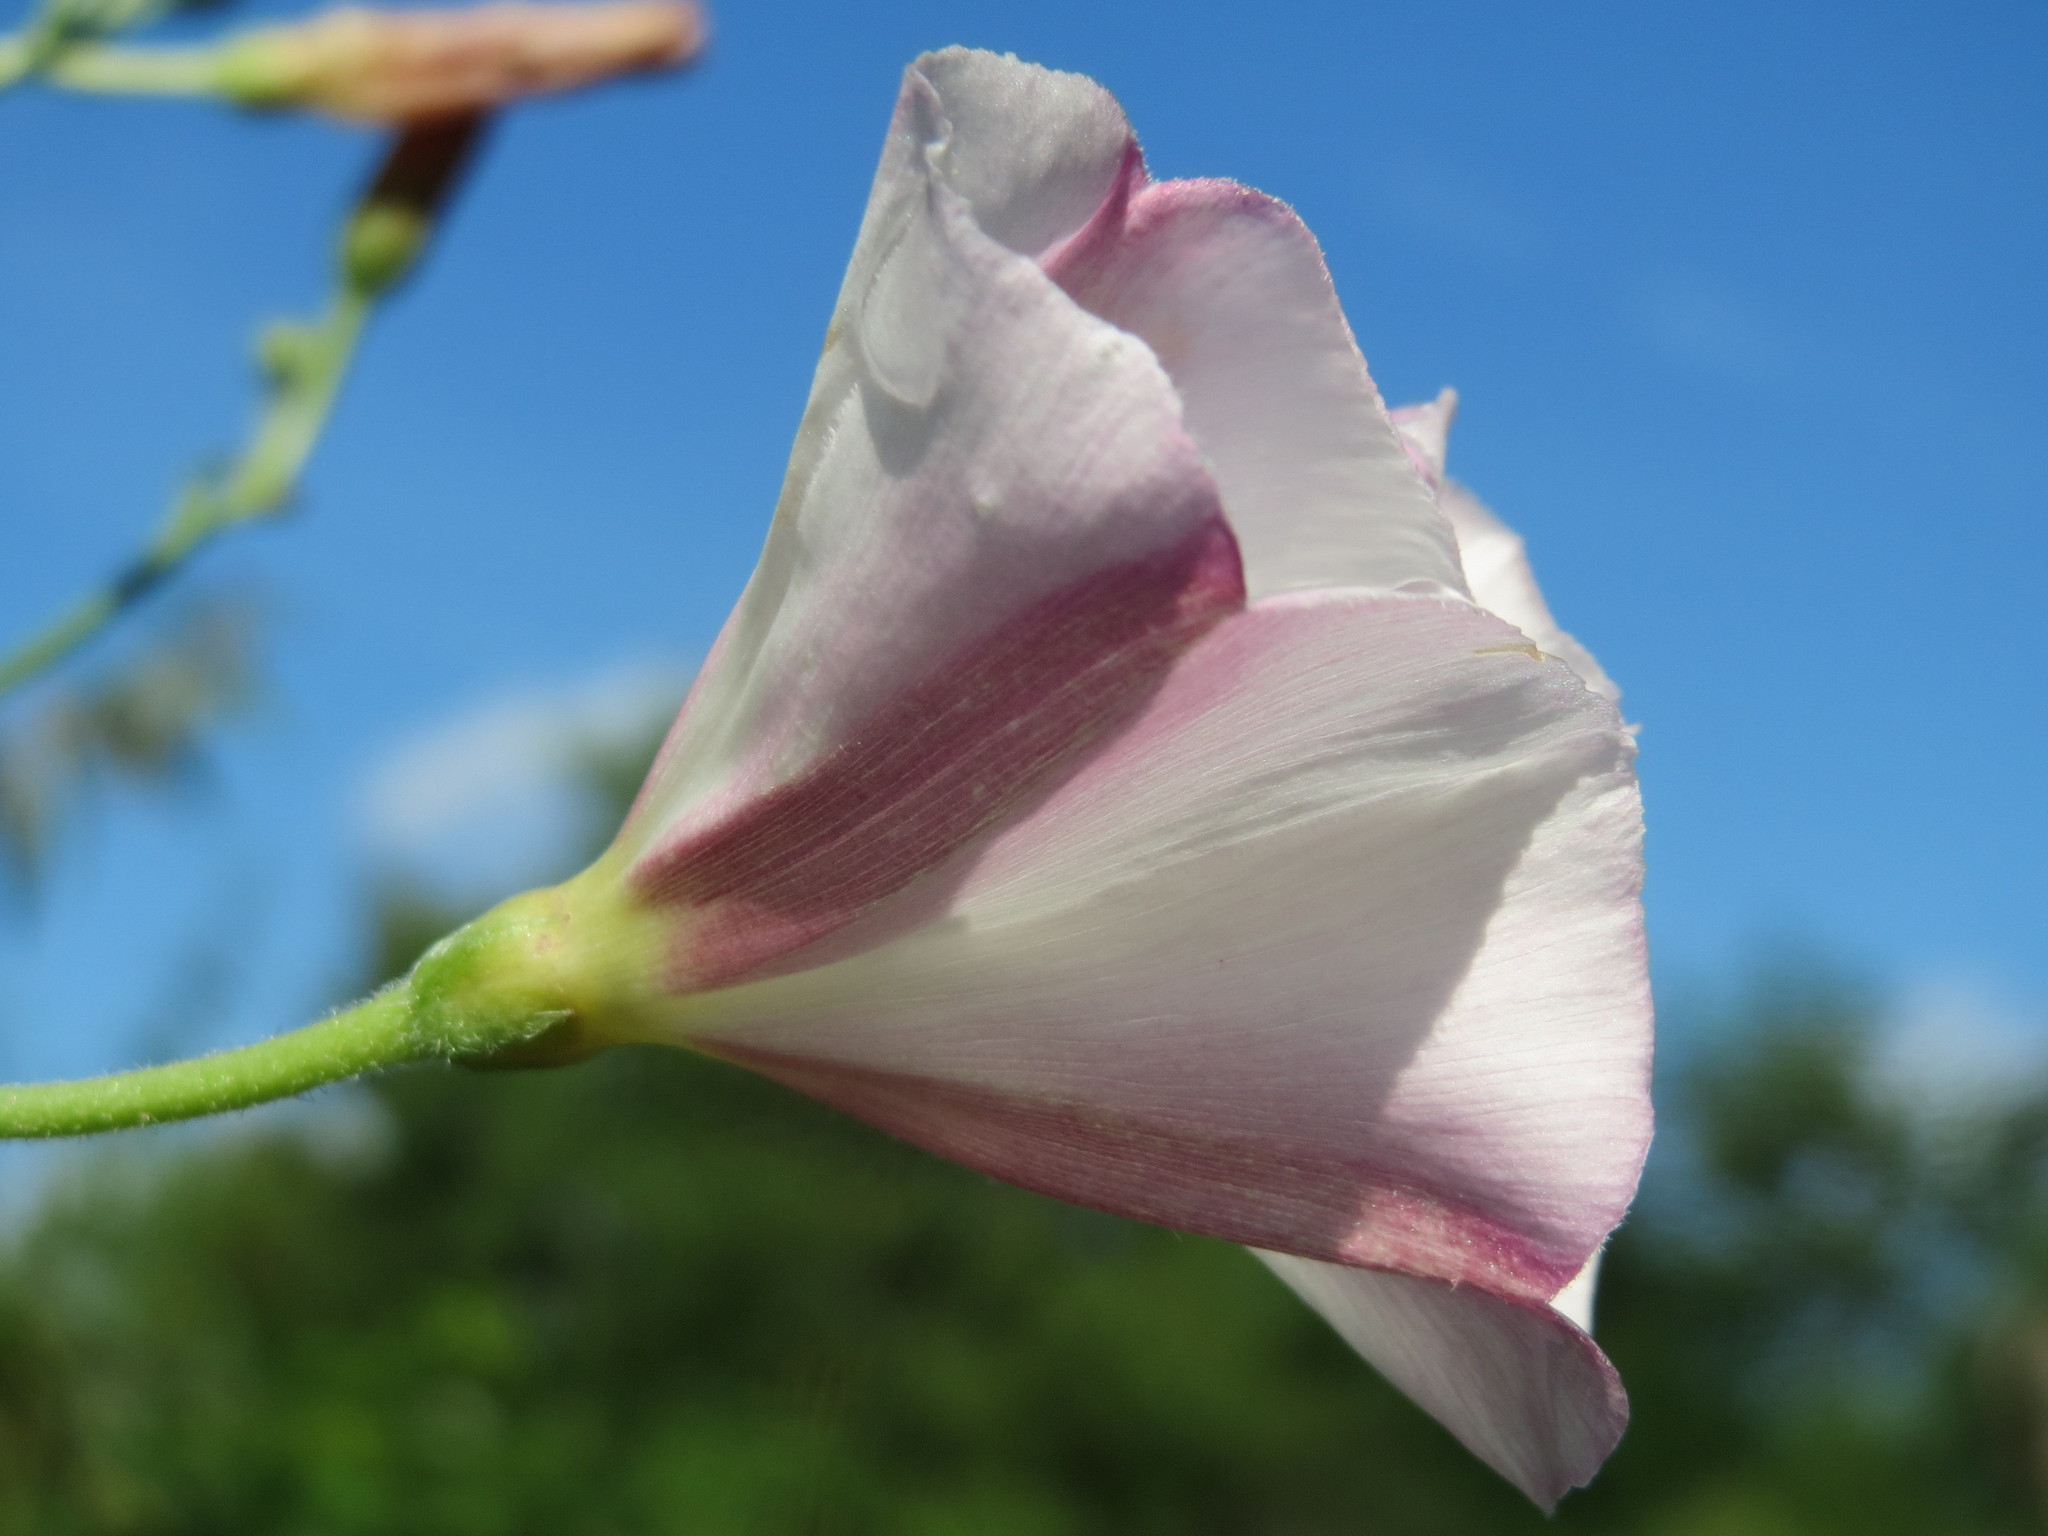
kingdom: Plantae
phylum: Tracheophyta
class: Magnoliopsida
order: Solanales
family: Convolvulaceae
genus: Convolvulus
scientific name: Convolvulus arvensis
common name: Field bindweed
